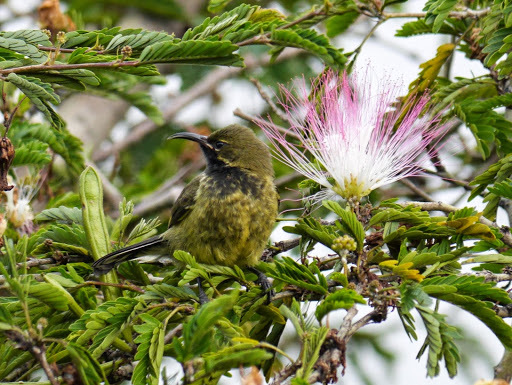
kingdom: Animalia
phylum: Chordata
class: Aves
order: Passeriformes
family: Nectariniidae
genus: Cinnyris
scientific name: Cinnyris erythrocercus
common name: Red-chested sunbird
